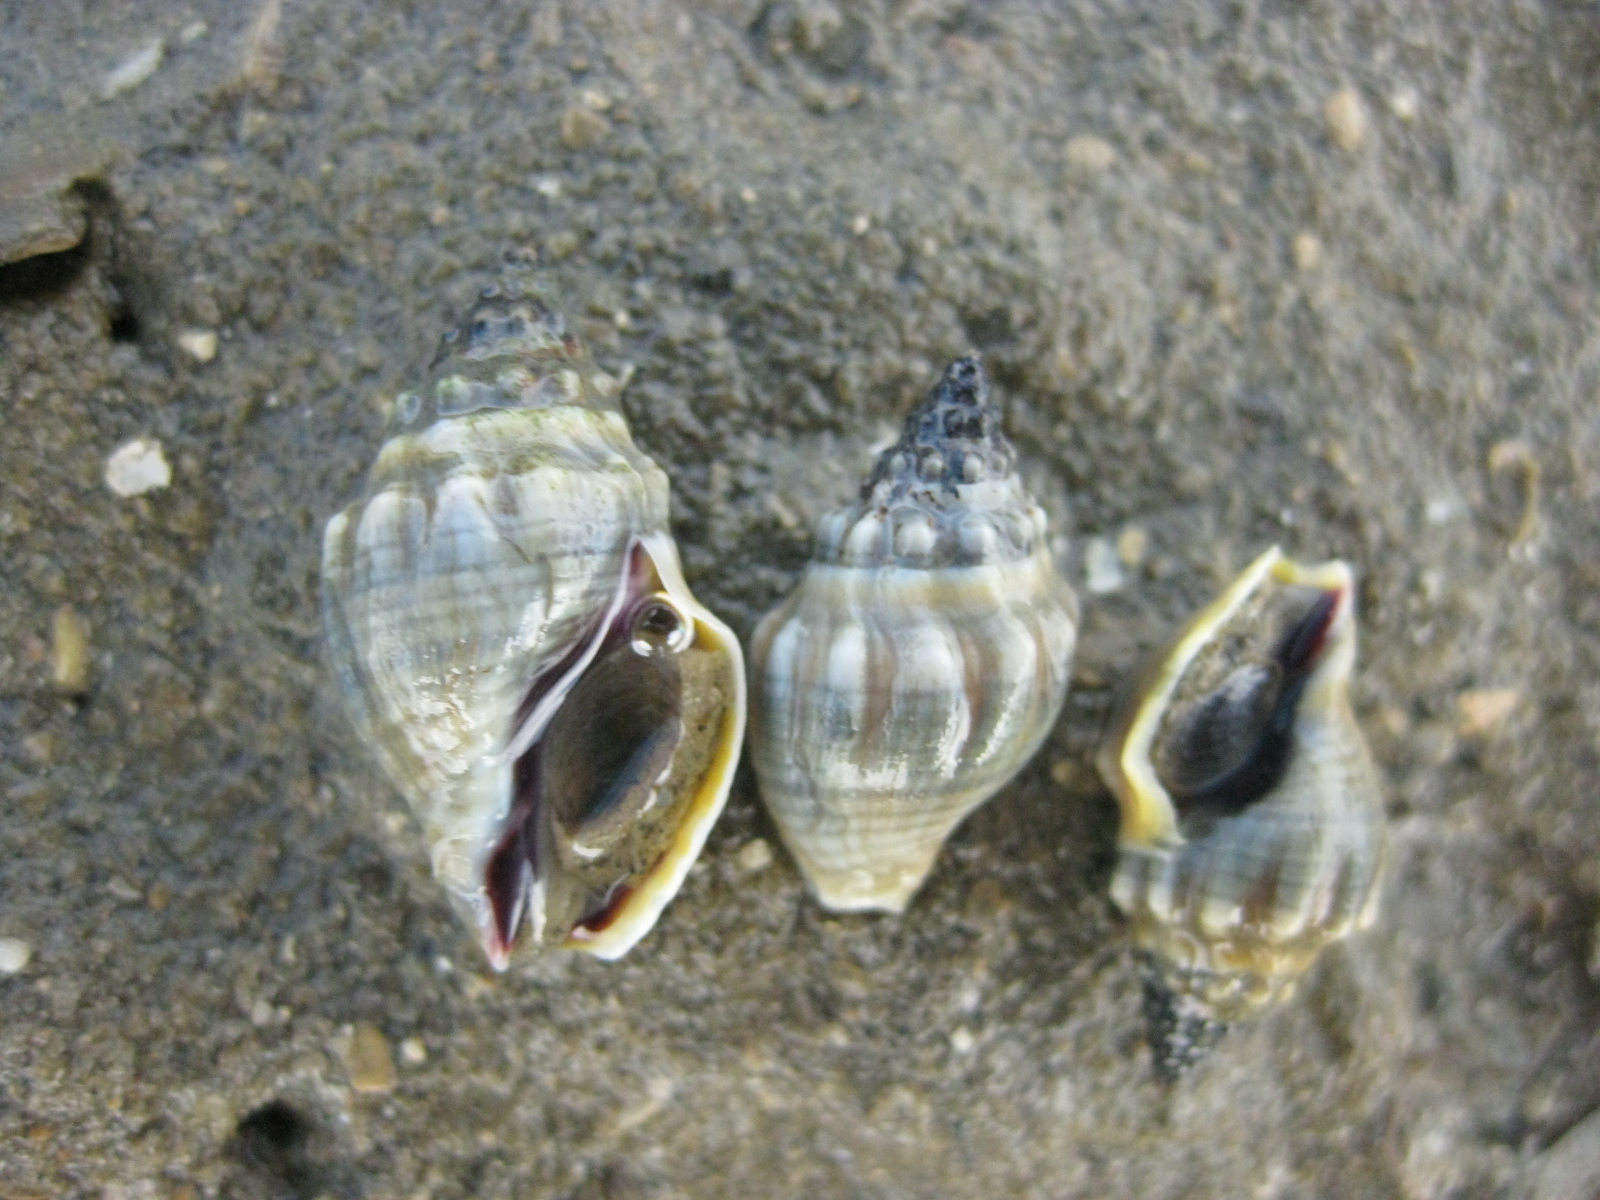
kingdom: Animalia
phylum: Mollusca
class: Gastropoda
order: Neogastropoda
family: Cominellidae
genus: Cominella
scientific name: Cominella glandiformis
